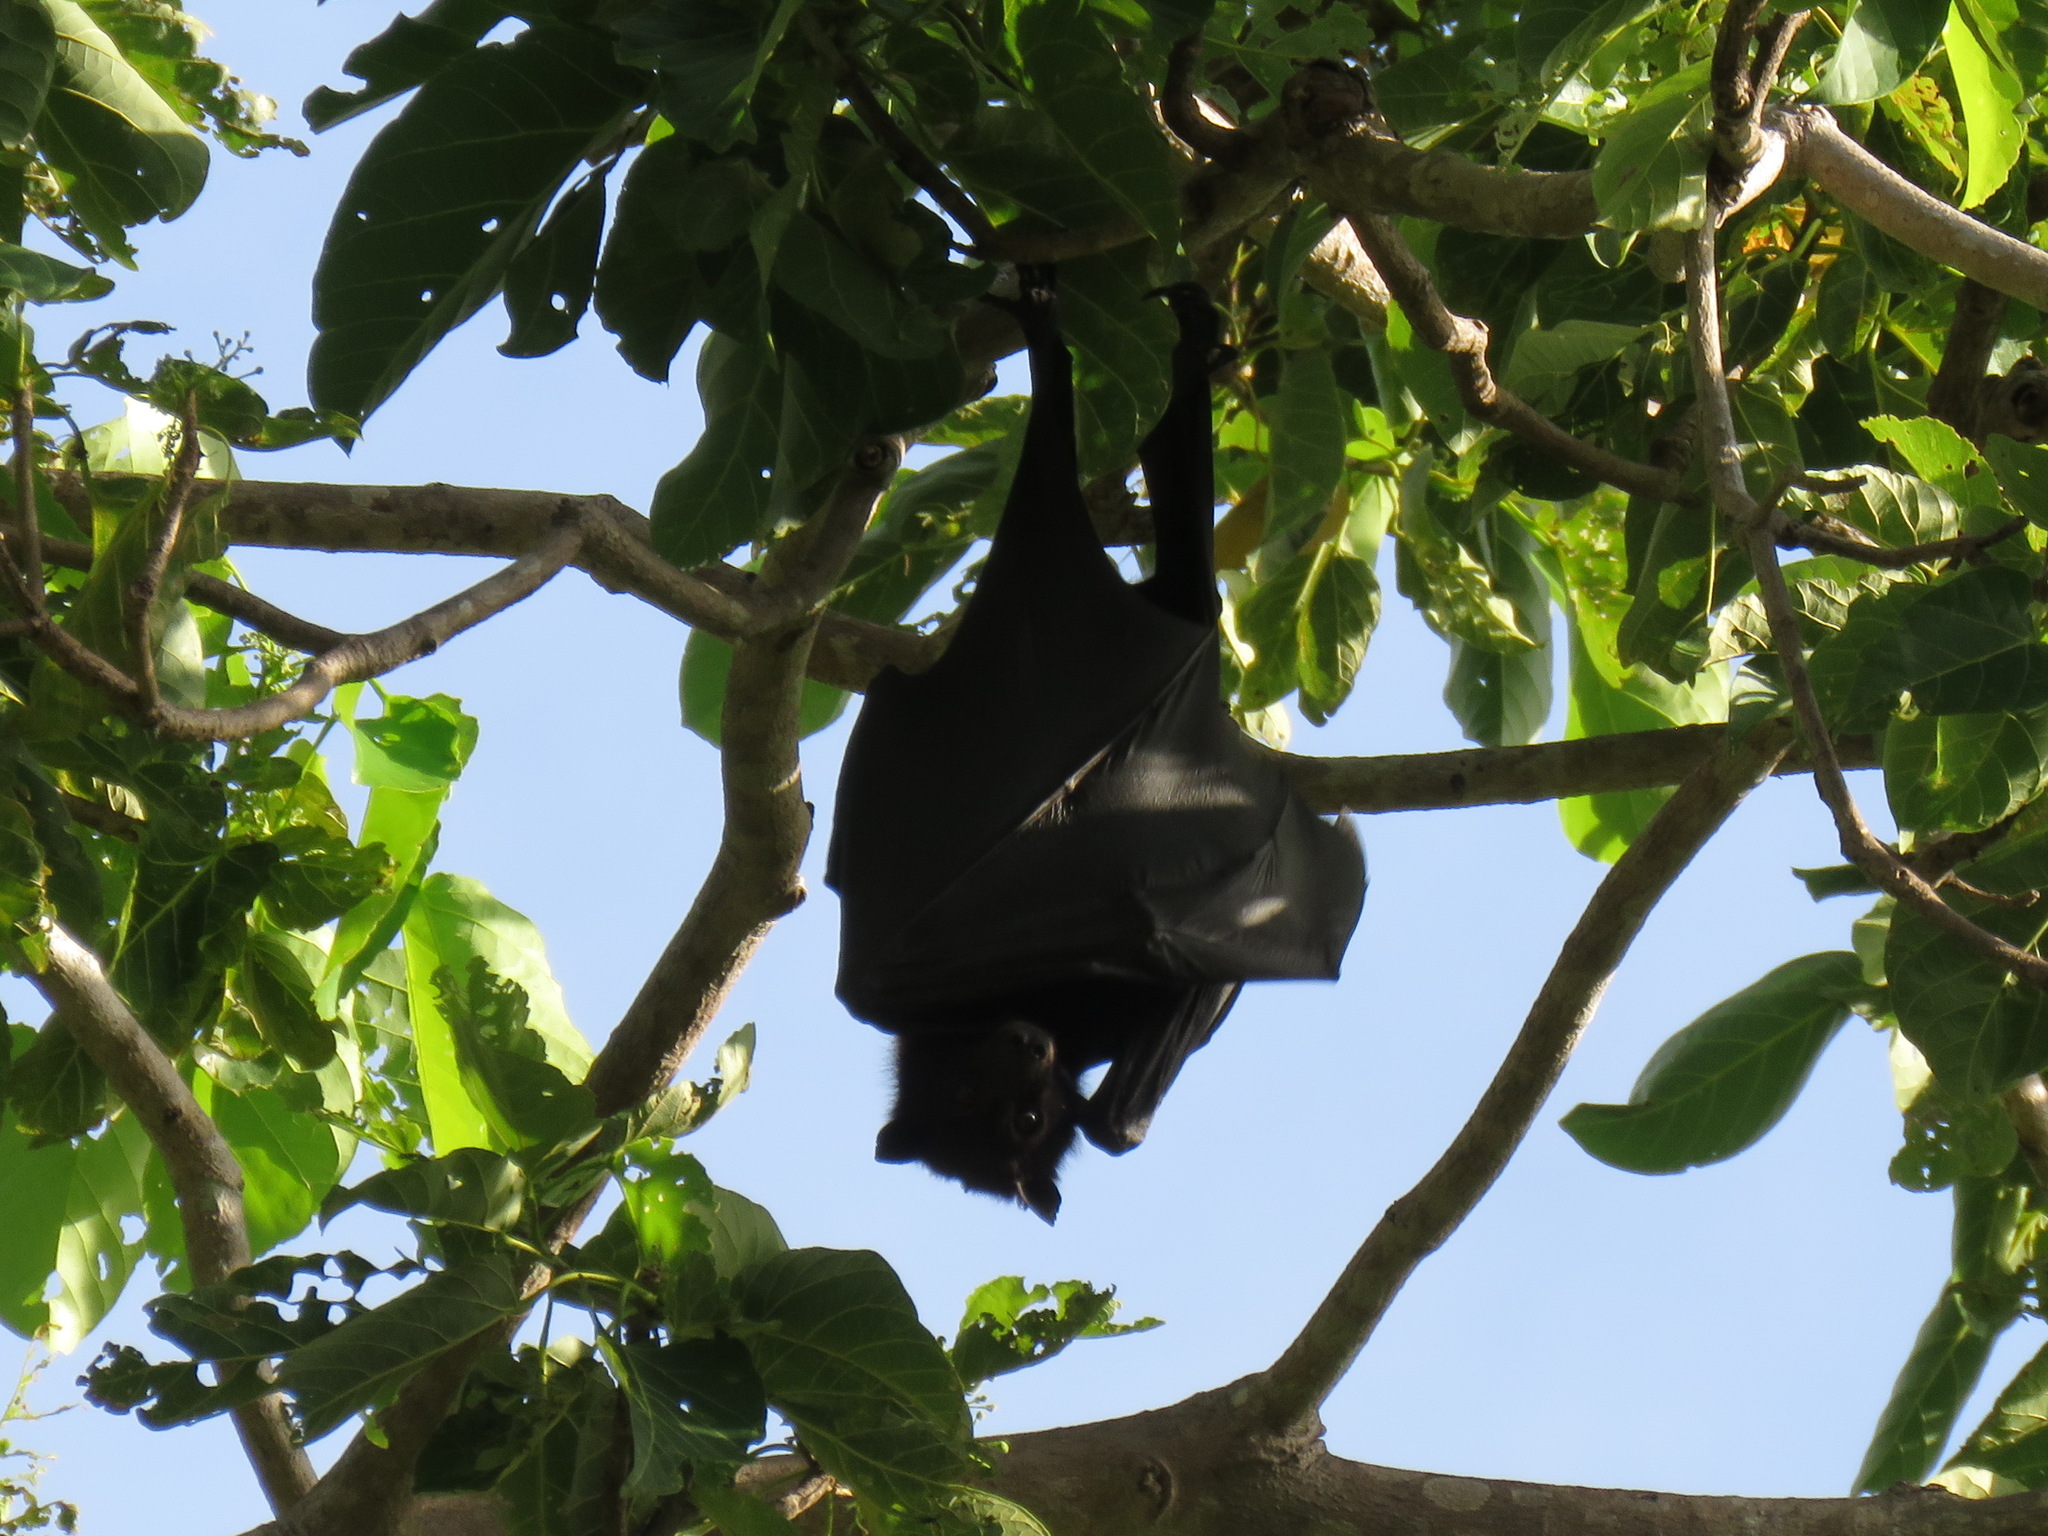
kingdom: Animalia
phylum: Chordata
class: Mammalia
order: Chiroptera
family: Pteropodidae
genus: Pteropus
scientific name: Pteropus alecto
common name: Black flying fox
